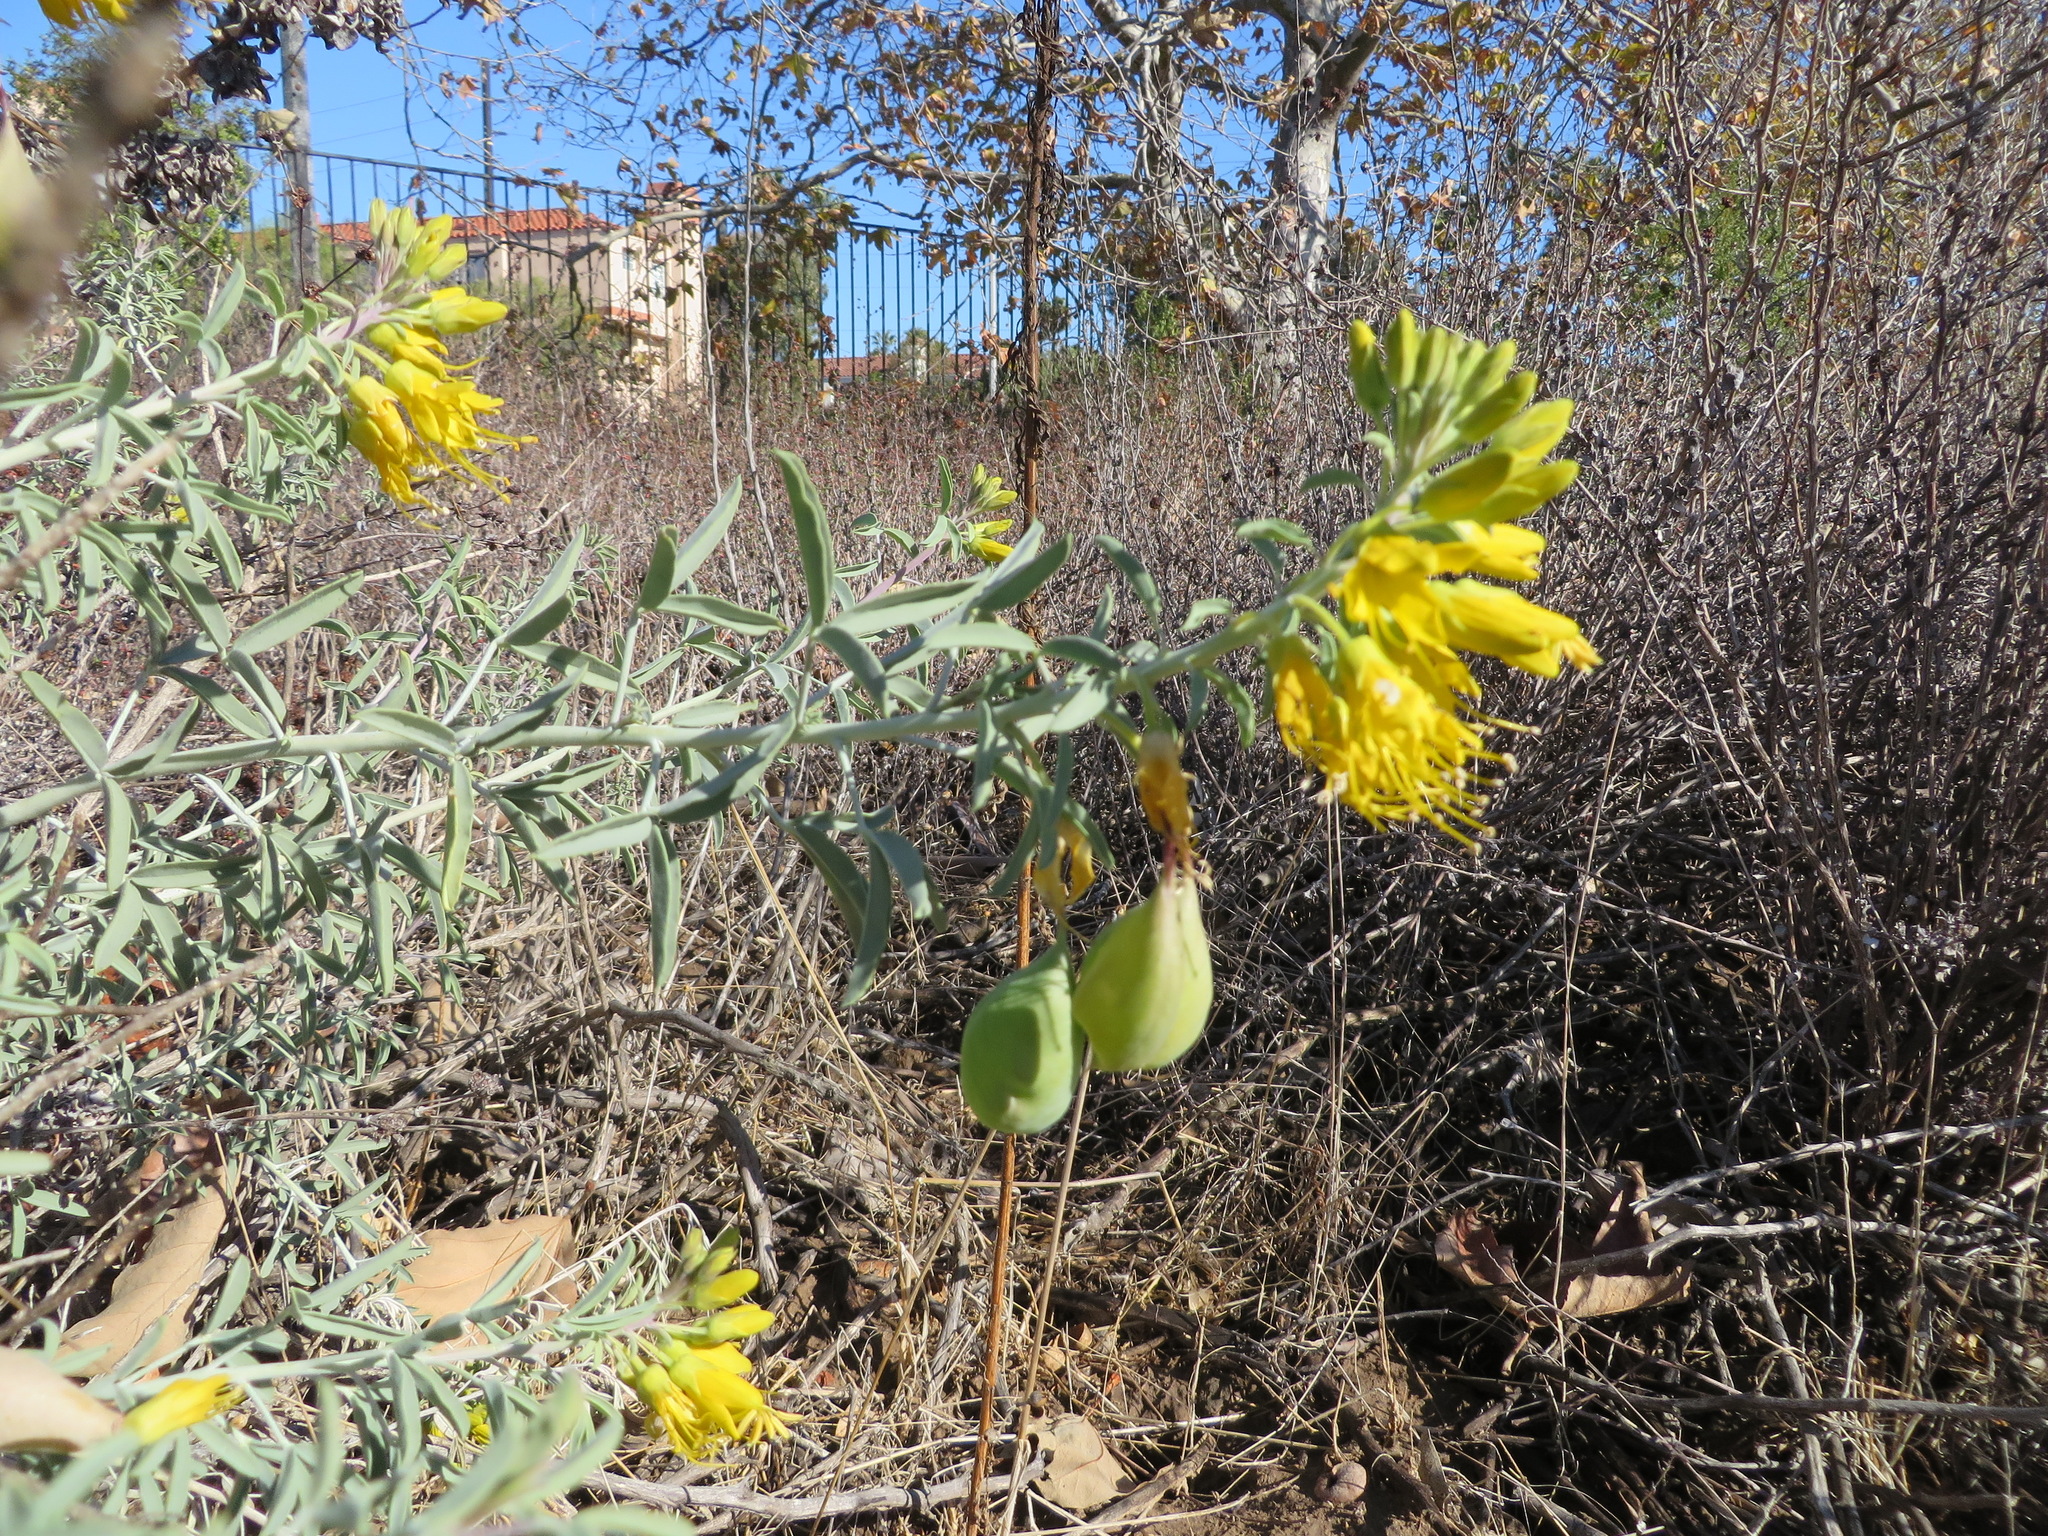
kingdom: Plantae
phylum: Tracheophyta
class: Magnoliopsida
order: Brassicales
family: Cleomaceae
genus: Cleomella
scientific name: Cleomella arborea
